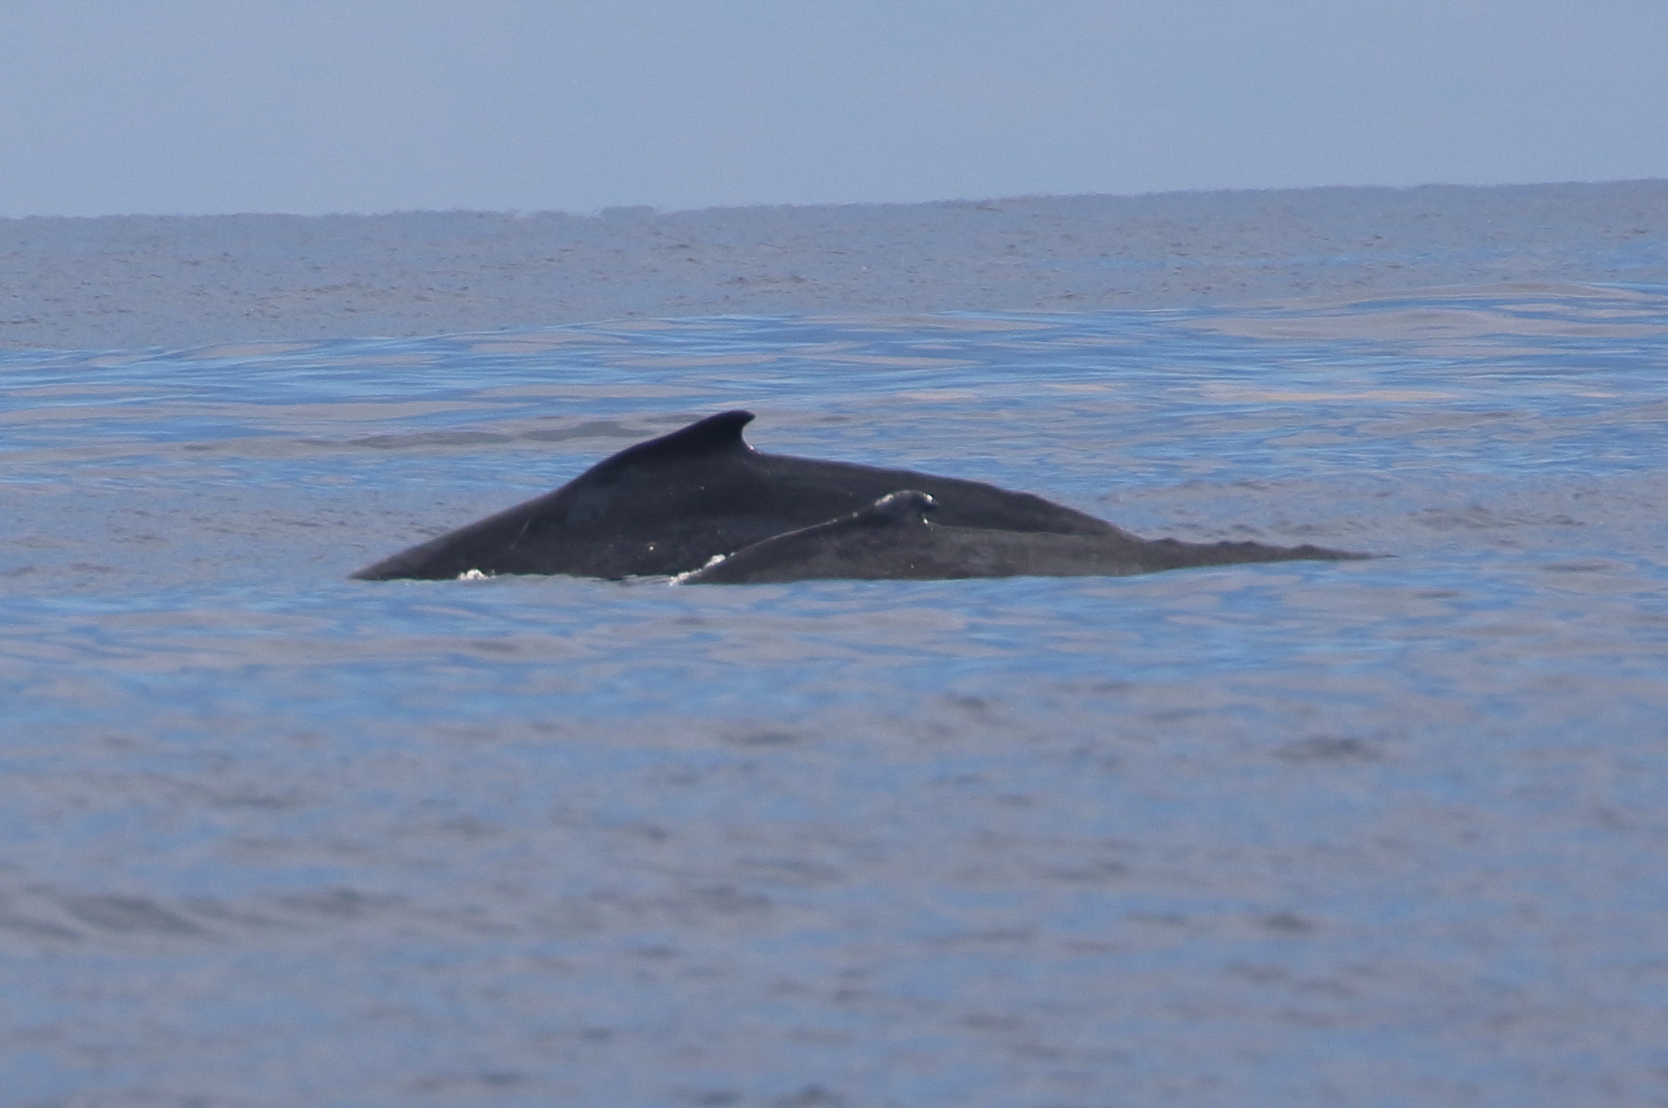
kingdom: Animalia
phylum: Chordata
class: Mammalia
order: Cetacea
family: Balaenopteridae
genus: Megaptera
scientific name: Megaptera novaeangliae
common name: Humpback whale
